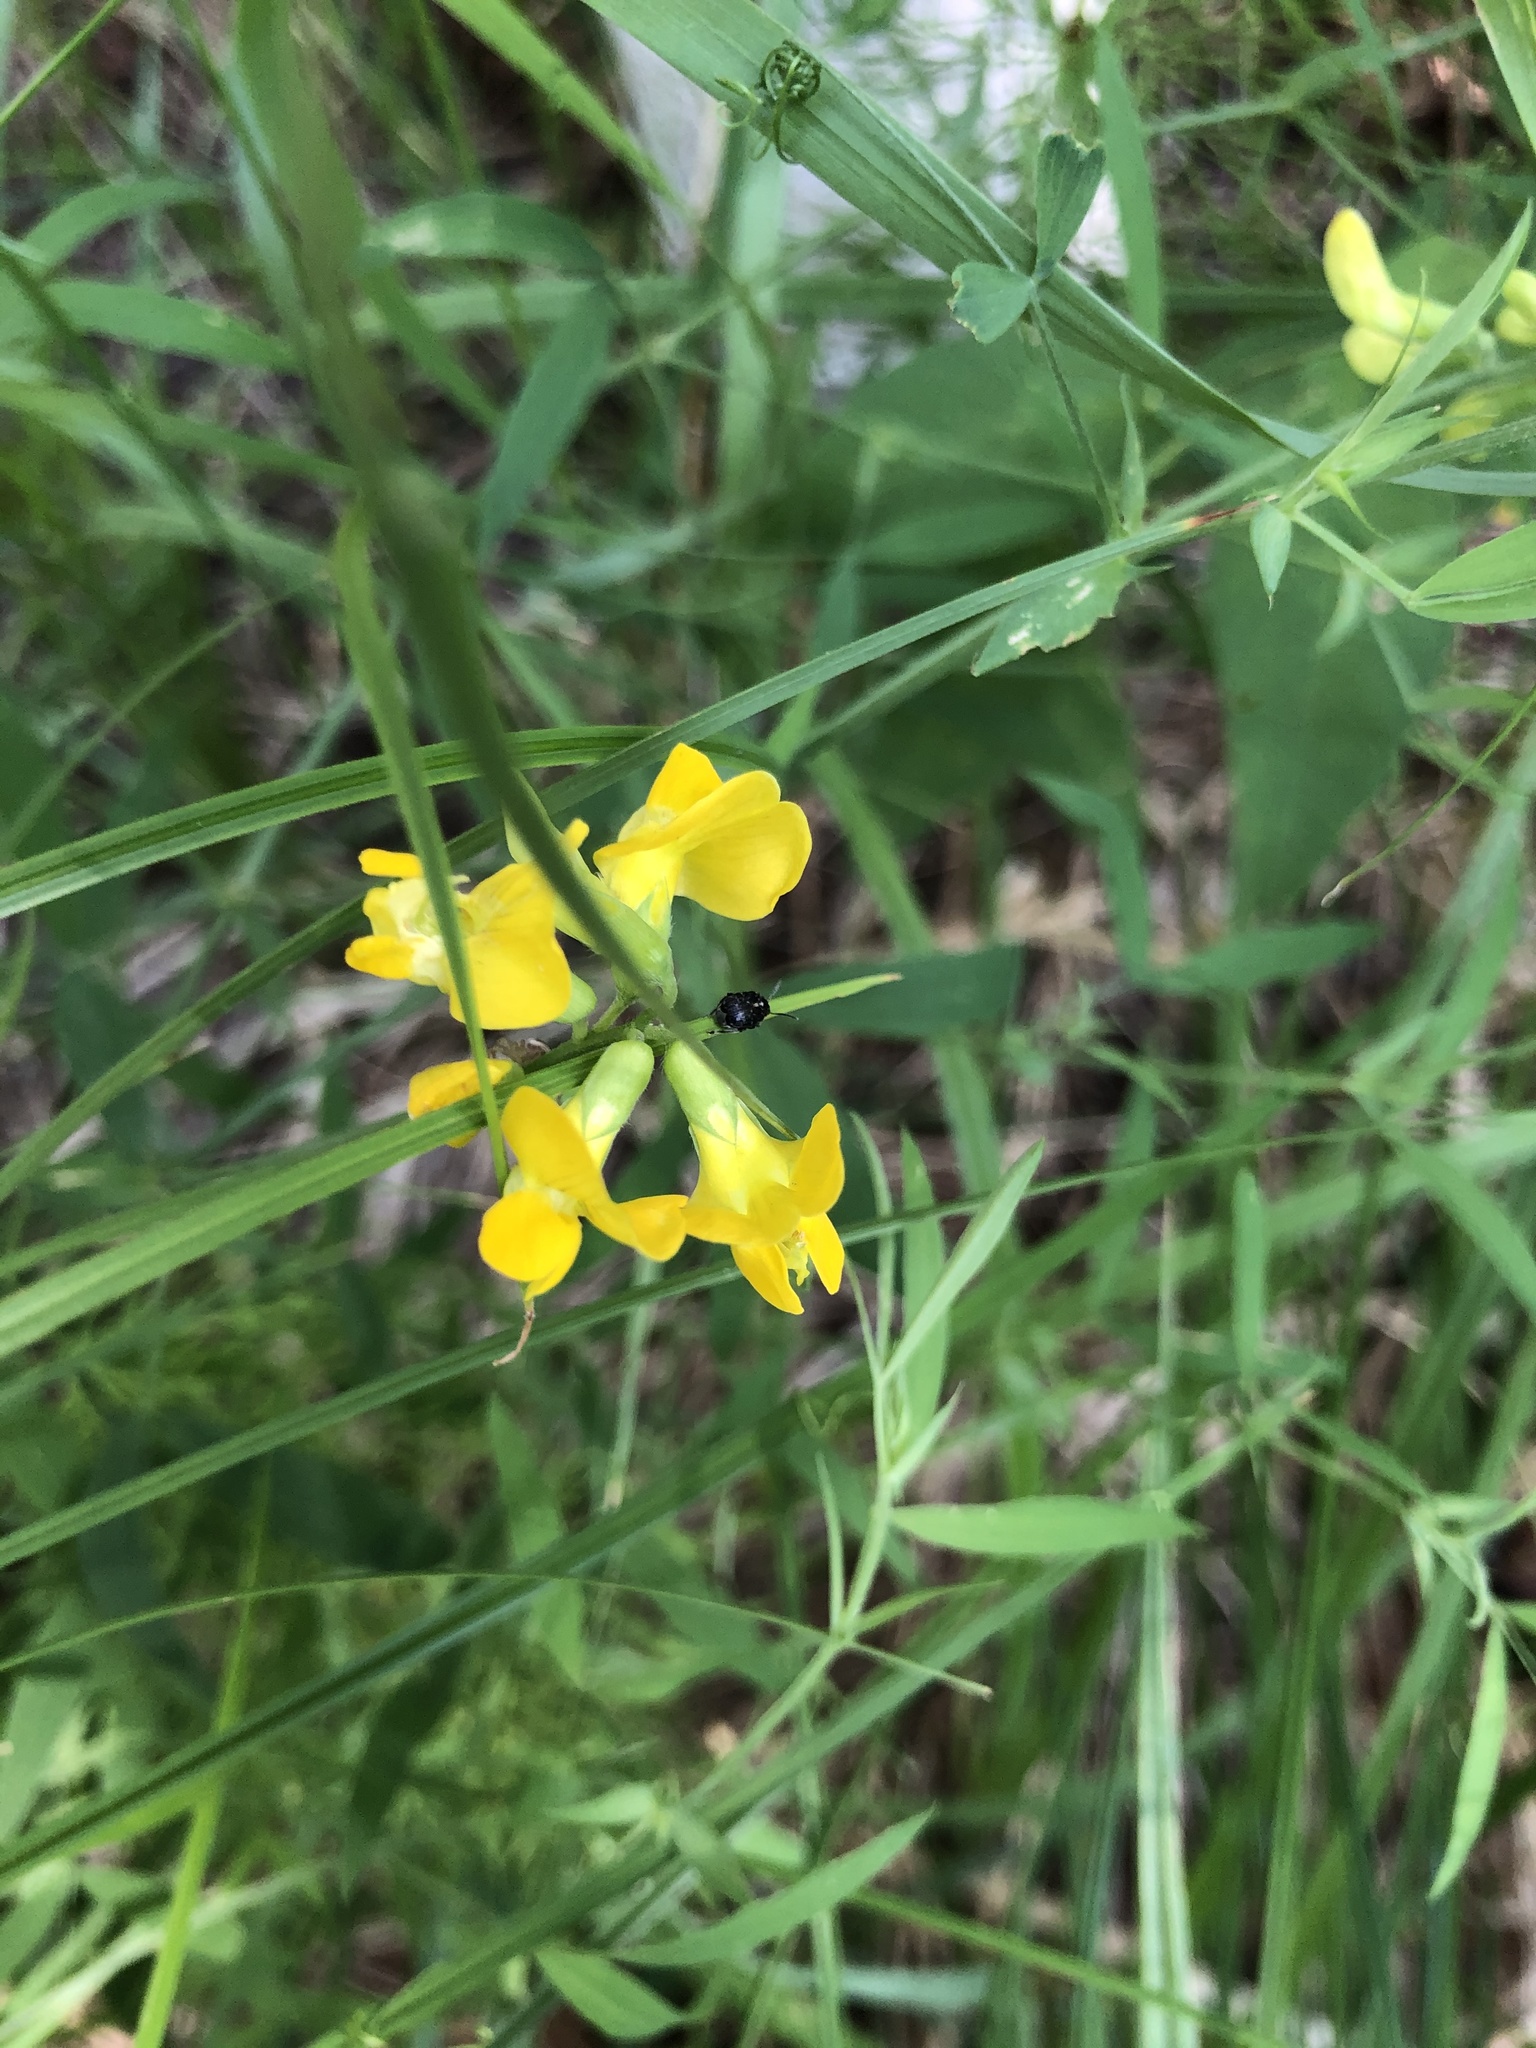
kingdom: Plantae
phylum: Tracheophyta
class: Magnoliopsida
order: Fabales
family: Fabaceae
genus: Lathyrus
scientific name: Lathyrus pratensis
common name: Meadow vetchling
